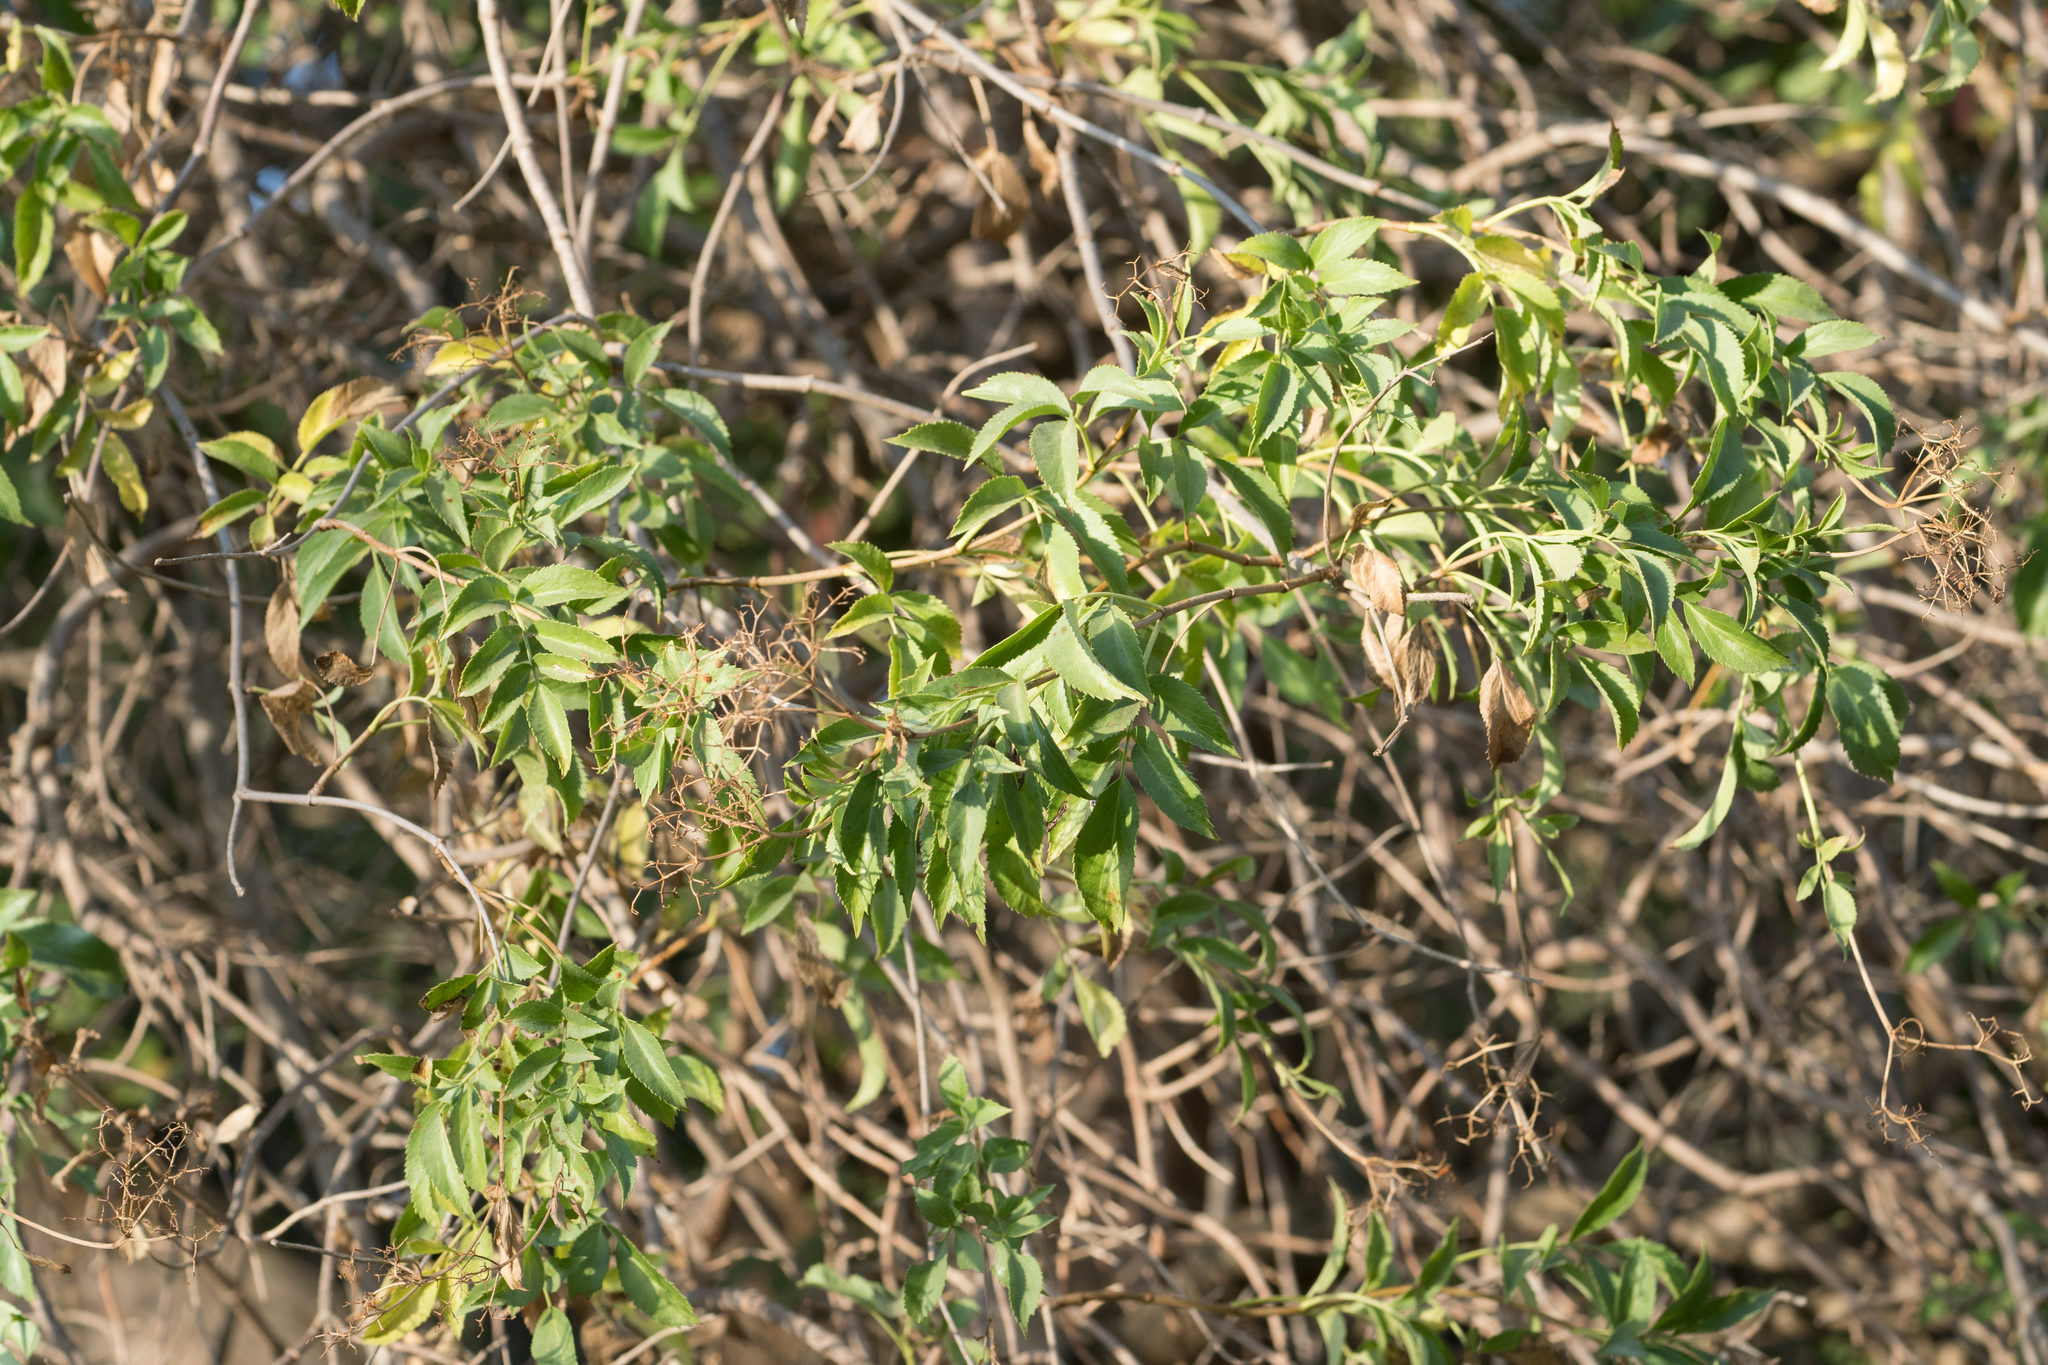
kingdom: Plantae
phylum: Tracheophyta
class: Magnoliopsida
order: Dipsacales
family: Viburnaceae
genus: Sambucus
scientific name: Sambucus cerulea
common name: Blue elder
